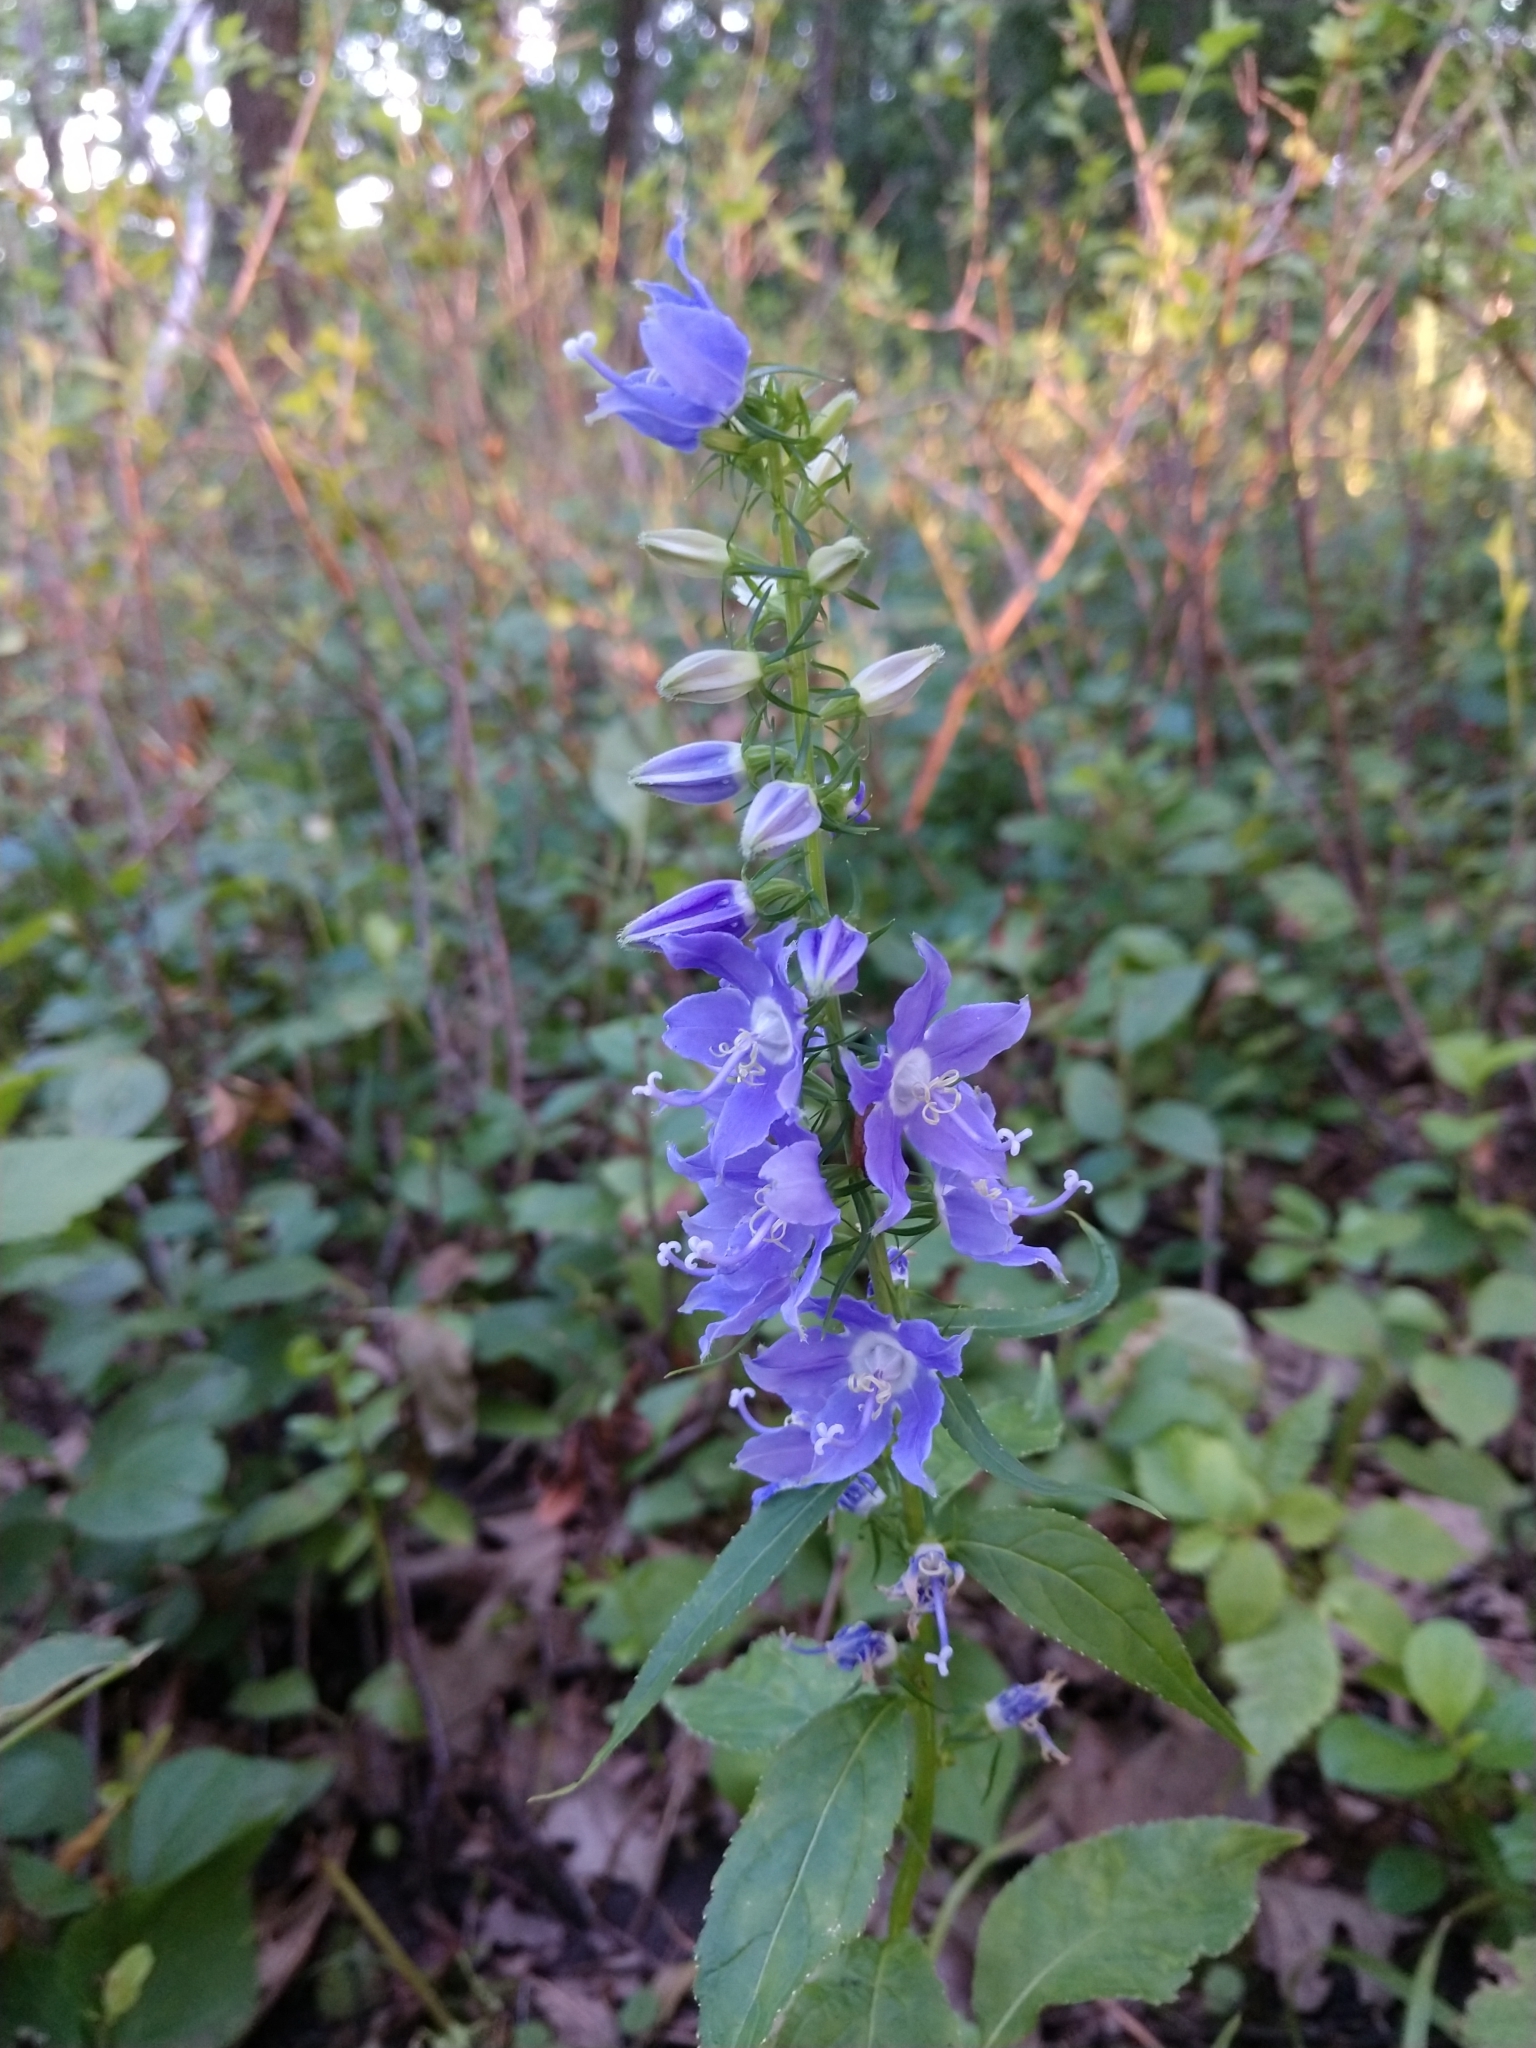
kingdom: Plantae
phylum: Tracheophyta
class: Magnoliopsida
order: Asterales
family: Campanulaceae
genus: Campanulastrum
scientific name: Campanulastrum americanum
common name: American bellflower
